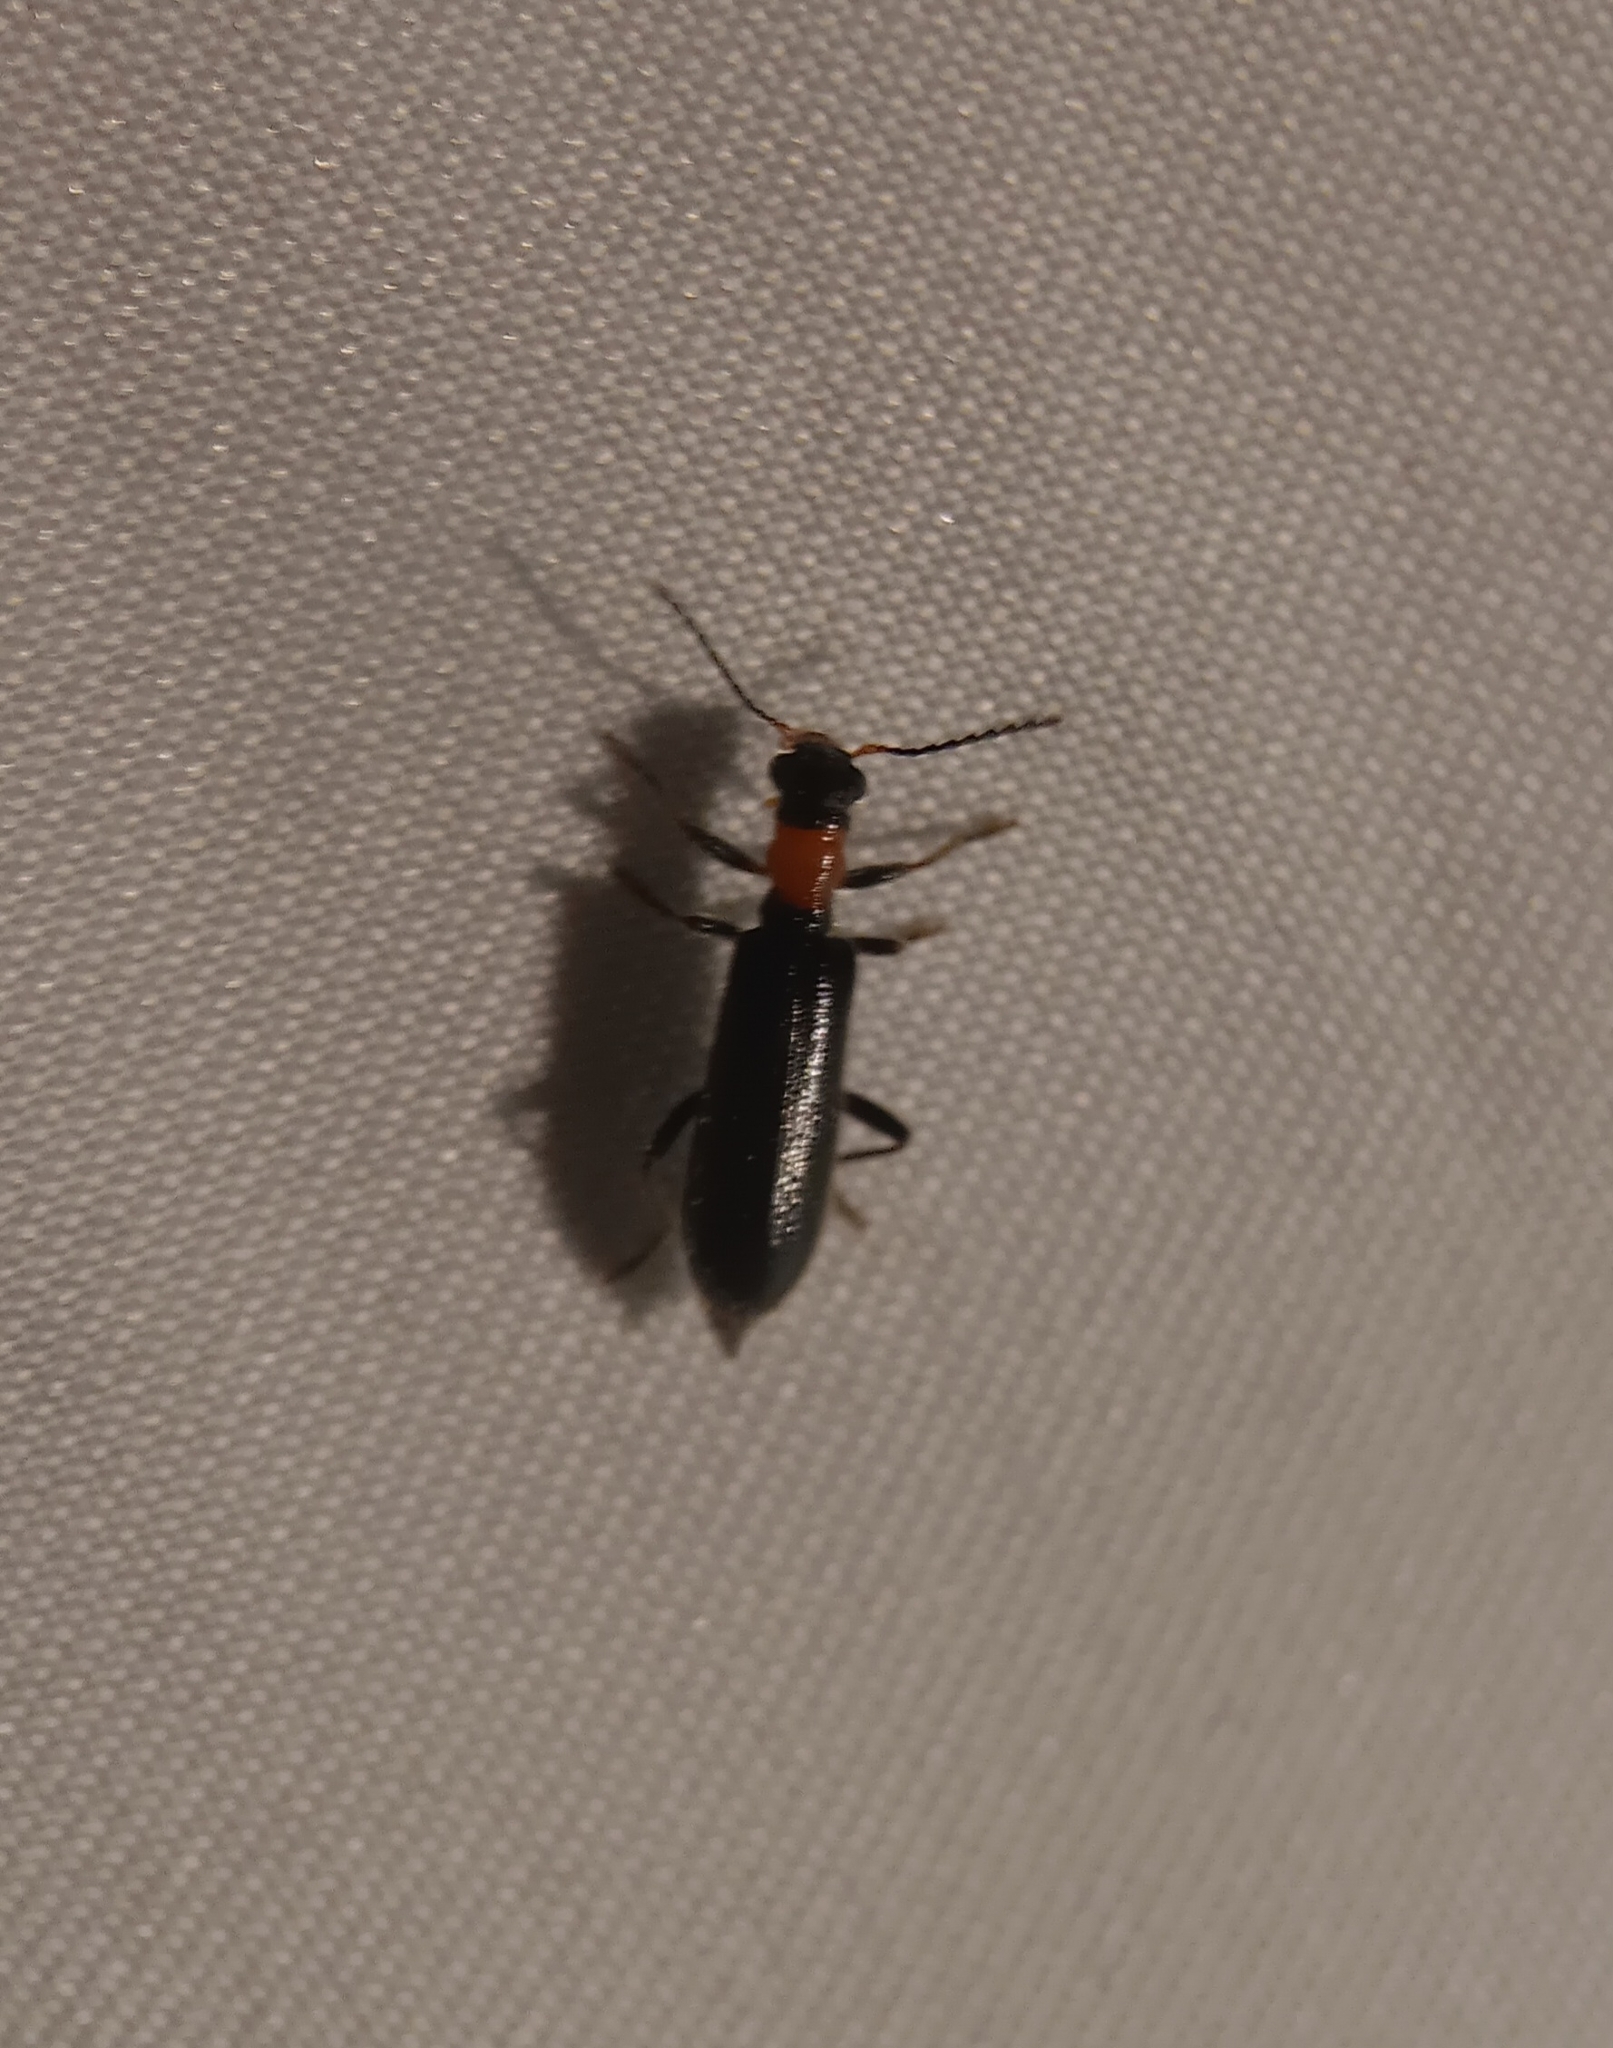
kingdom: Animalia
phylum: Arthropoda
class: Insecta
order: Coleoptera
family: Cleridae
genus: Cymatodera
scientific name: Cymatodera bicolor
